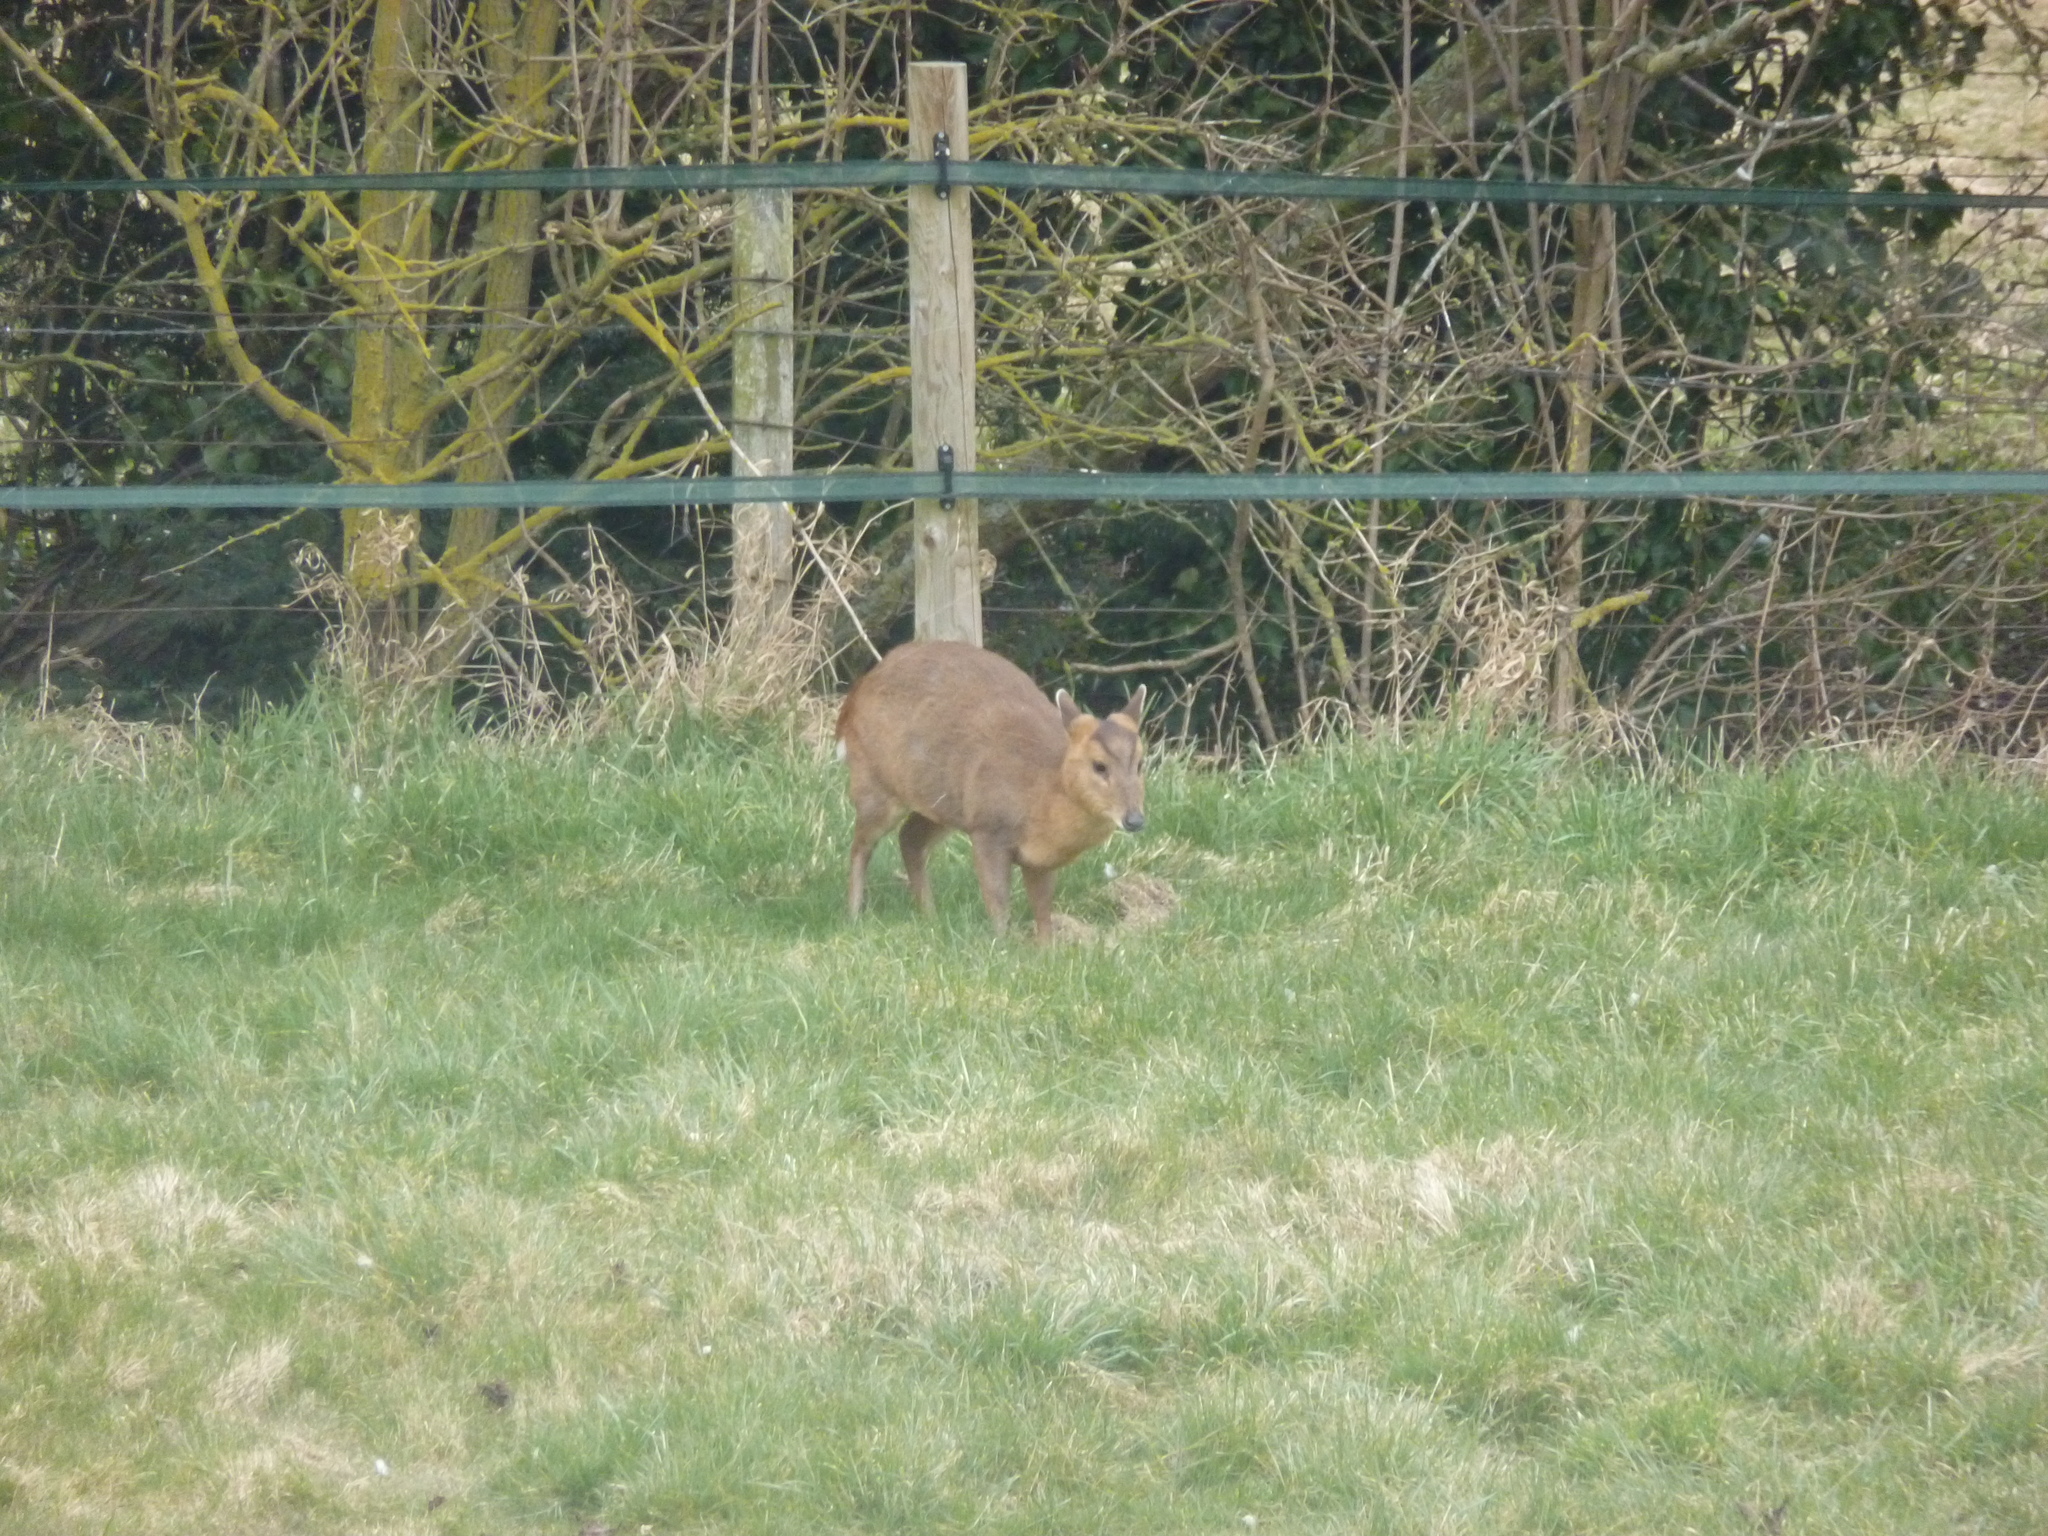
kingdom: Animalia
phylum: Chordata
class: Mammalia
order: Artiodactyla
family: Cervidae
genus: Muntiacus
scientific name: Muntiacus reevesi
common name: Reeves' muntjac
